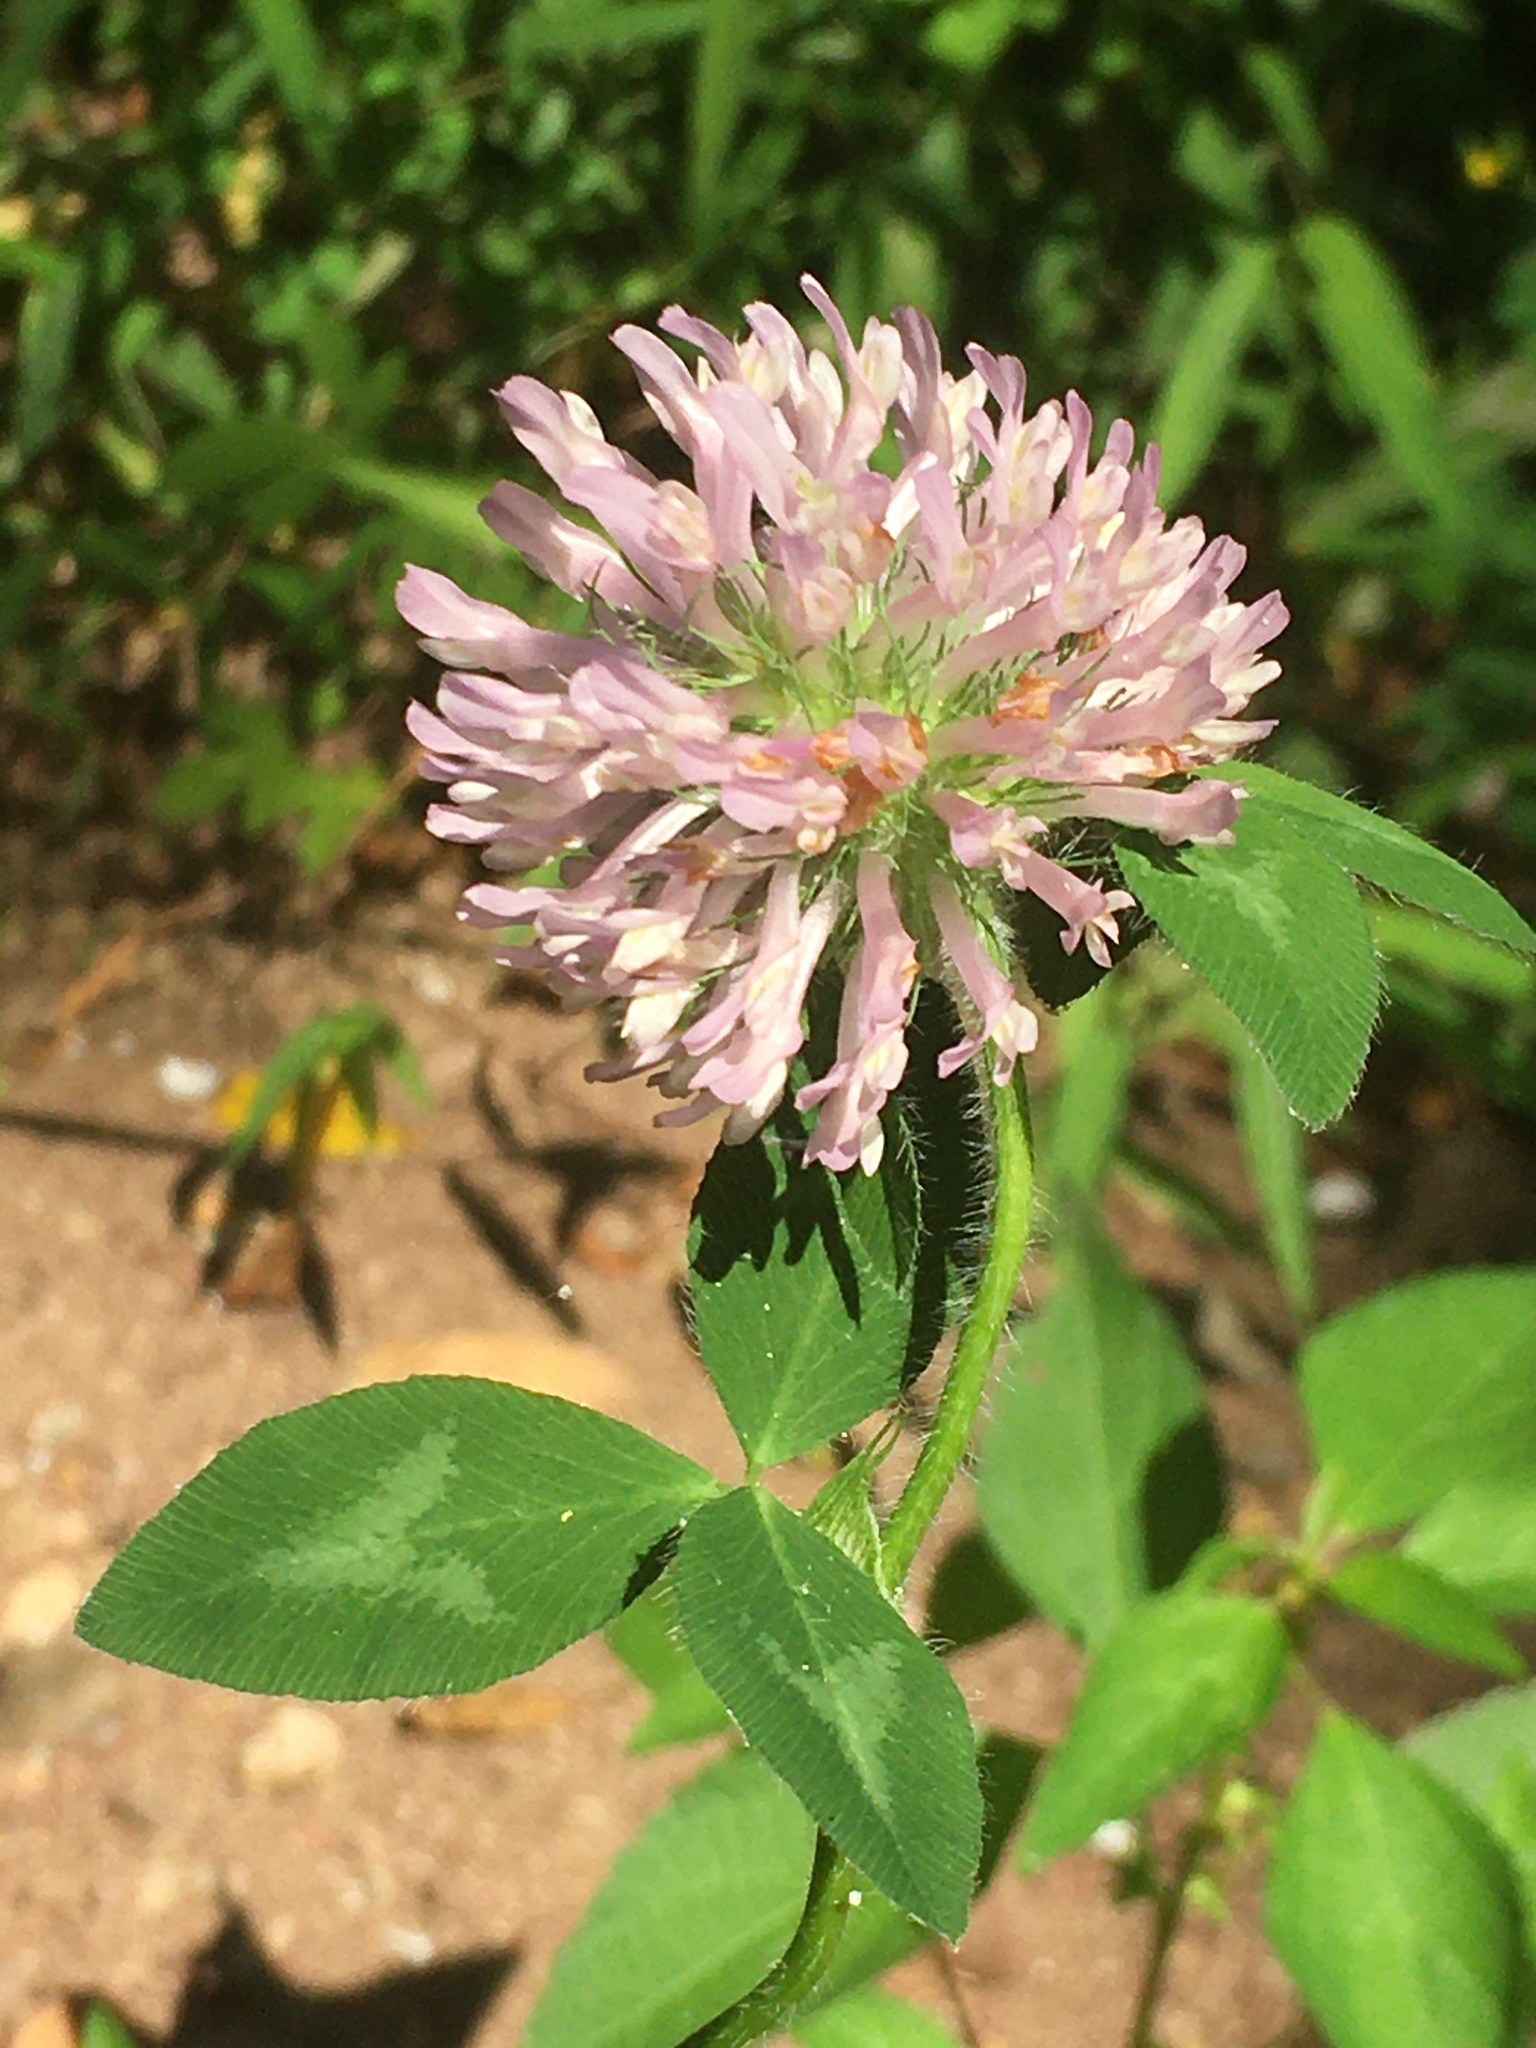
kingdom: Plantae
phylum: Tracheophyta
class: Magnoliopsida
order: Fabales
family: Fabaceae
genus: Trifolium
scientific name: Trifolium pratense
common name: Red clover
